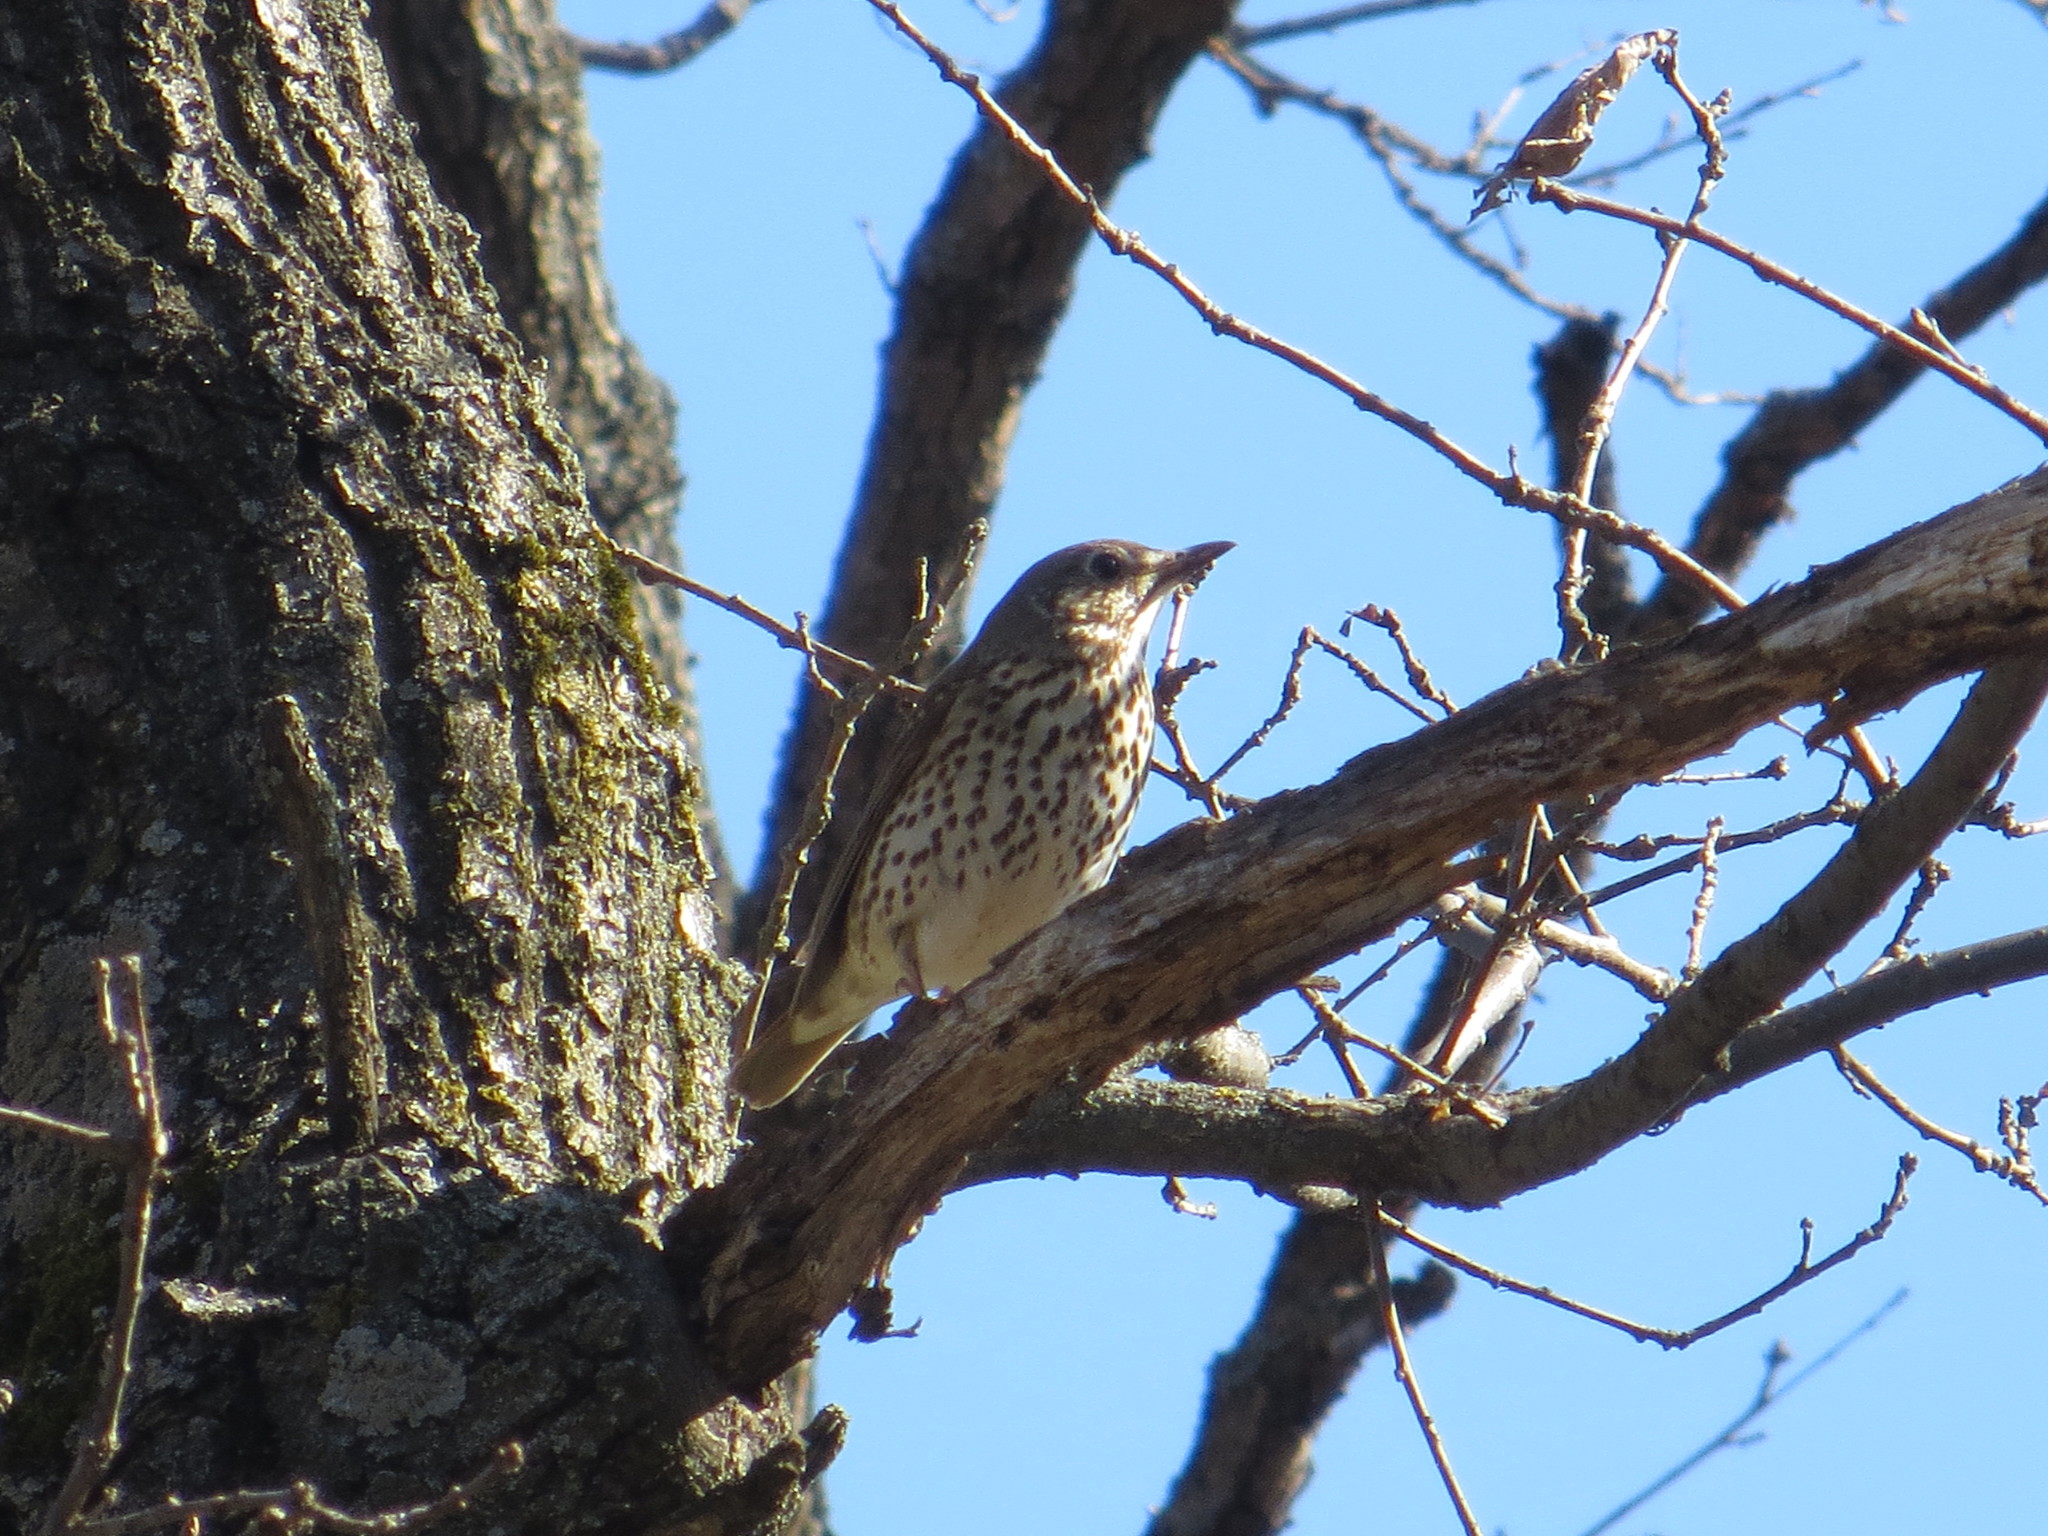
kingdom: Animalia
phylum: Chordata
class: Aves
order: Passeriformes
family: Turdidae
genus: Turdus
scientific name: Turdus philomelos
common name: Song thrush
